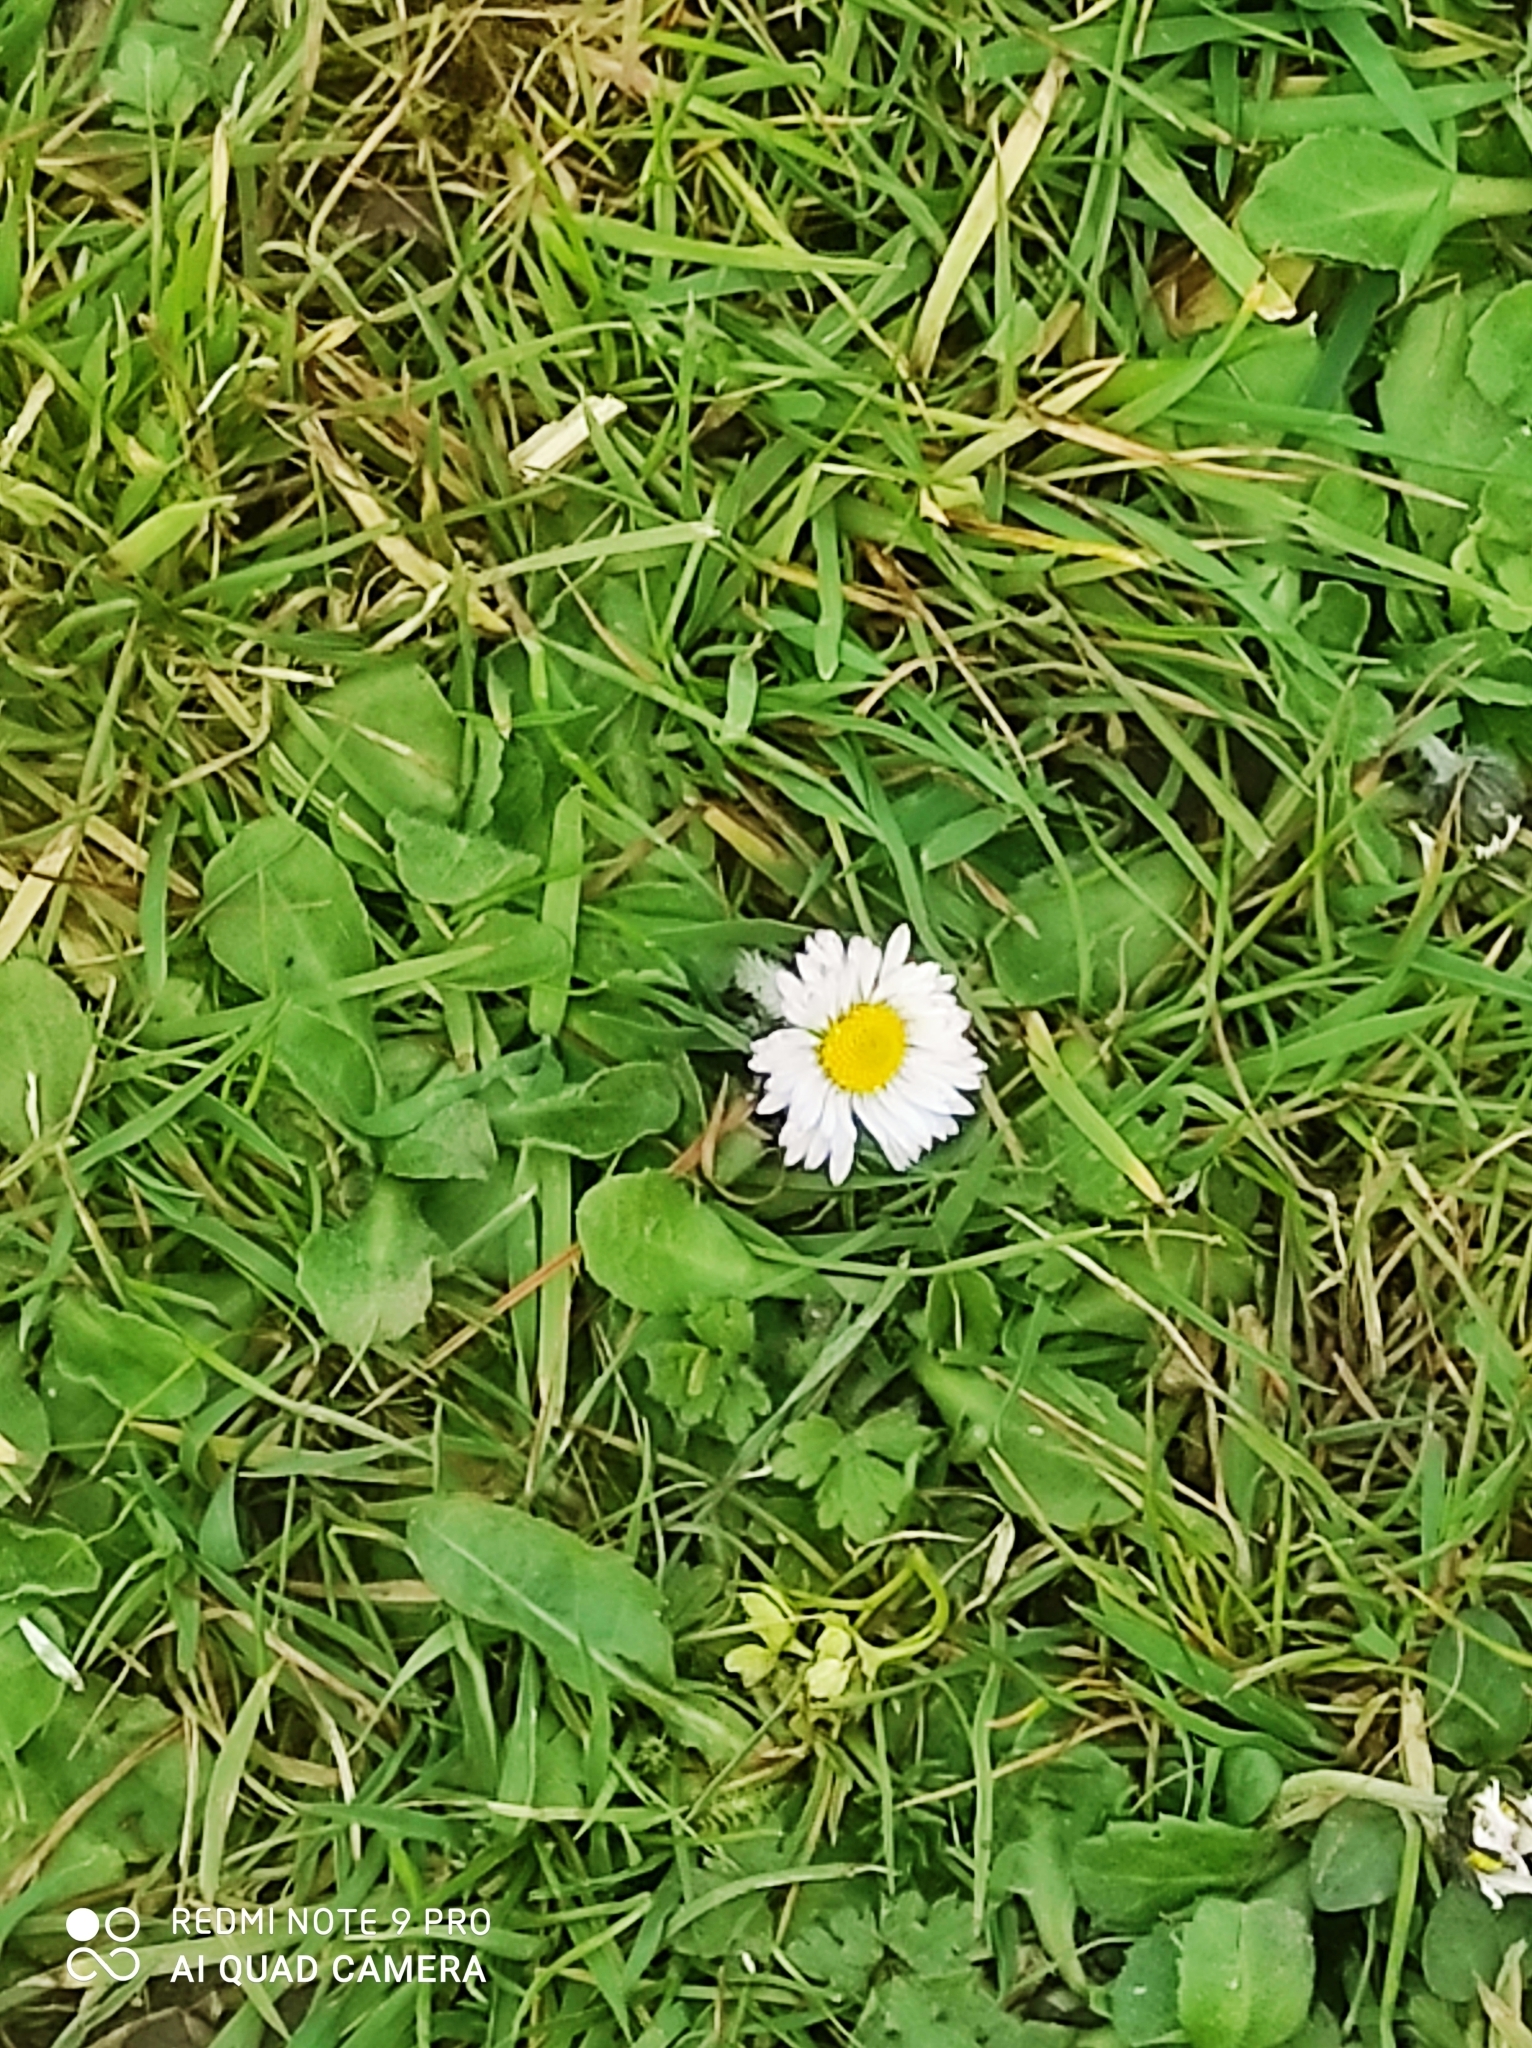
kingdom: Plantae
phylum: Tracheophyta
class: Magnoliopsida
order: Asterales
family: Asteraceae
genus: Bellis
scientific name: Bellis perennis
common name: Lawndaisy
